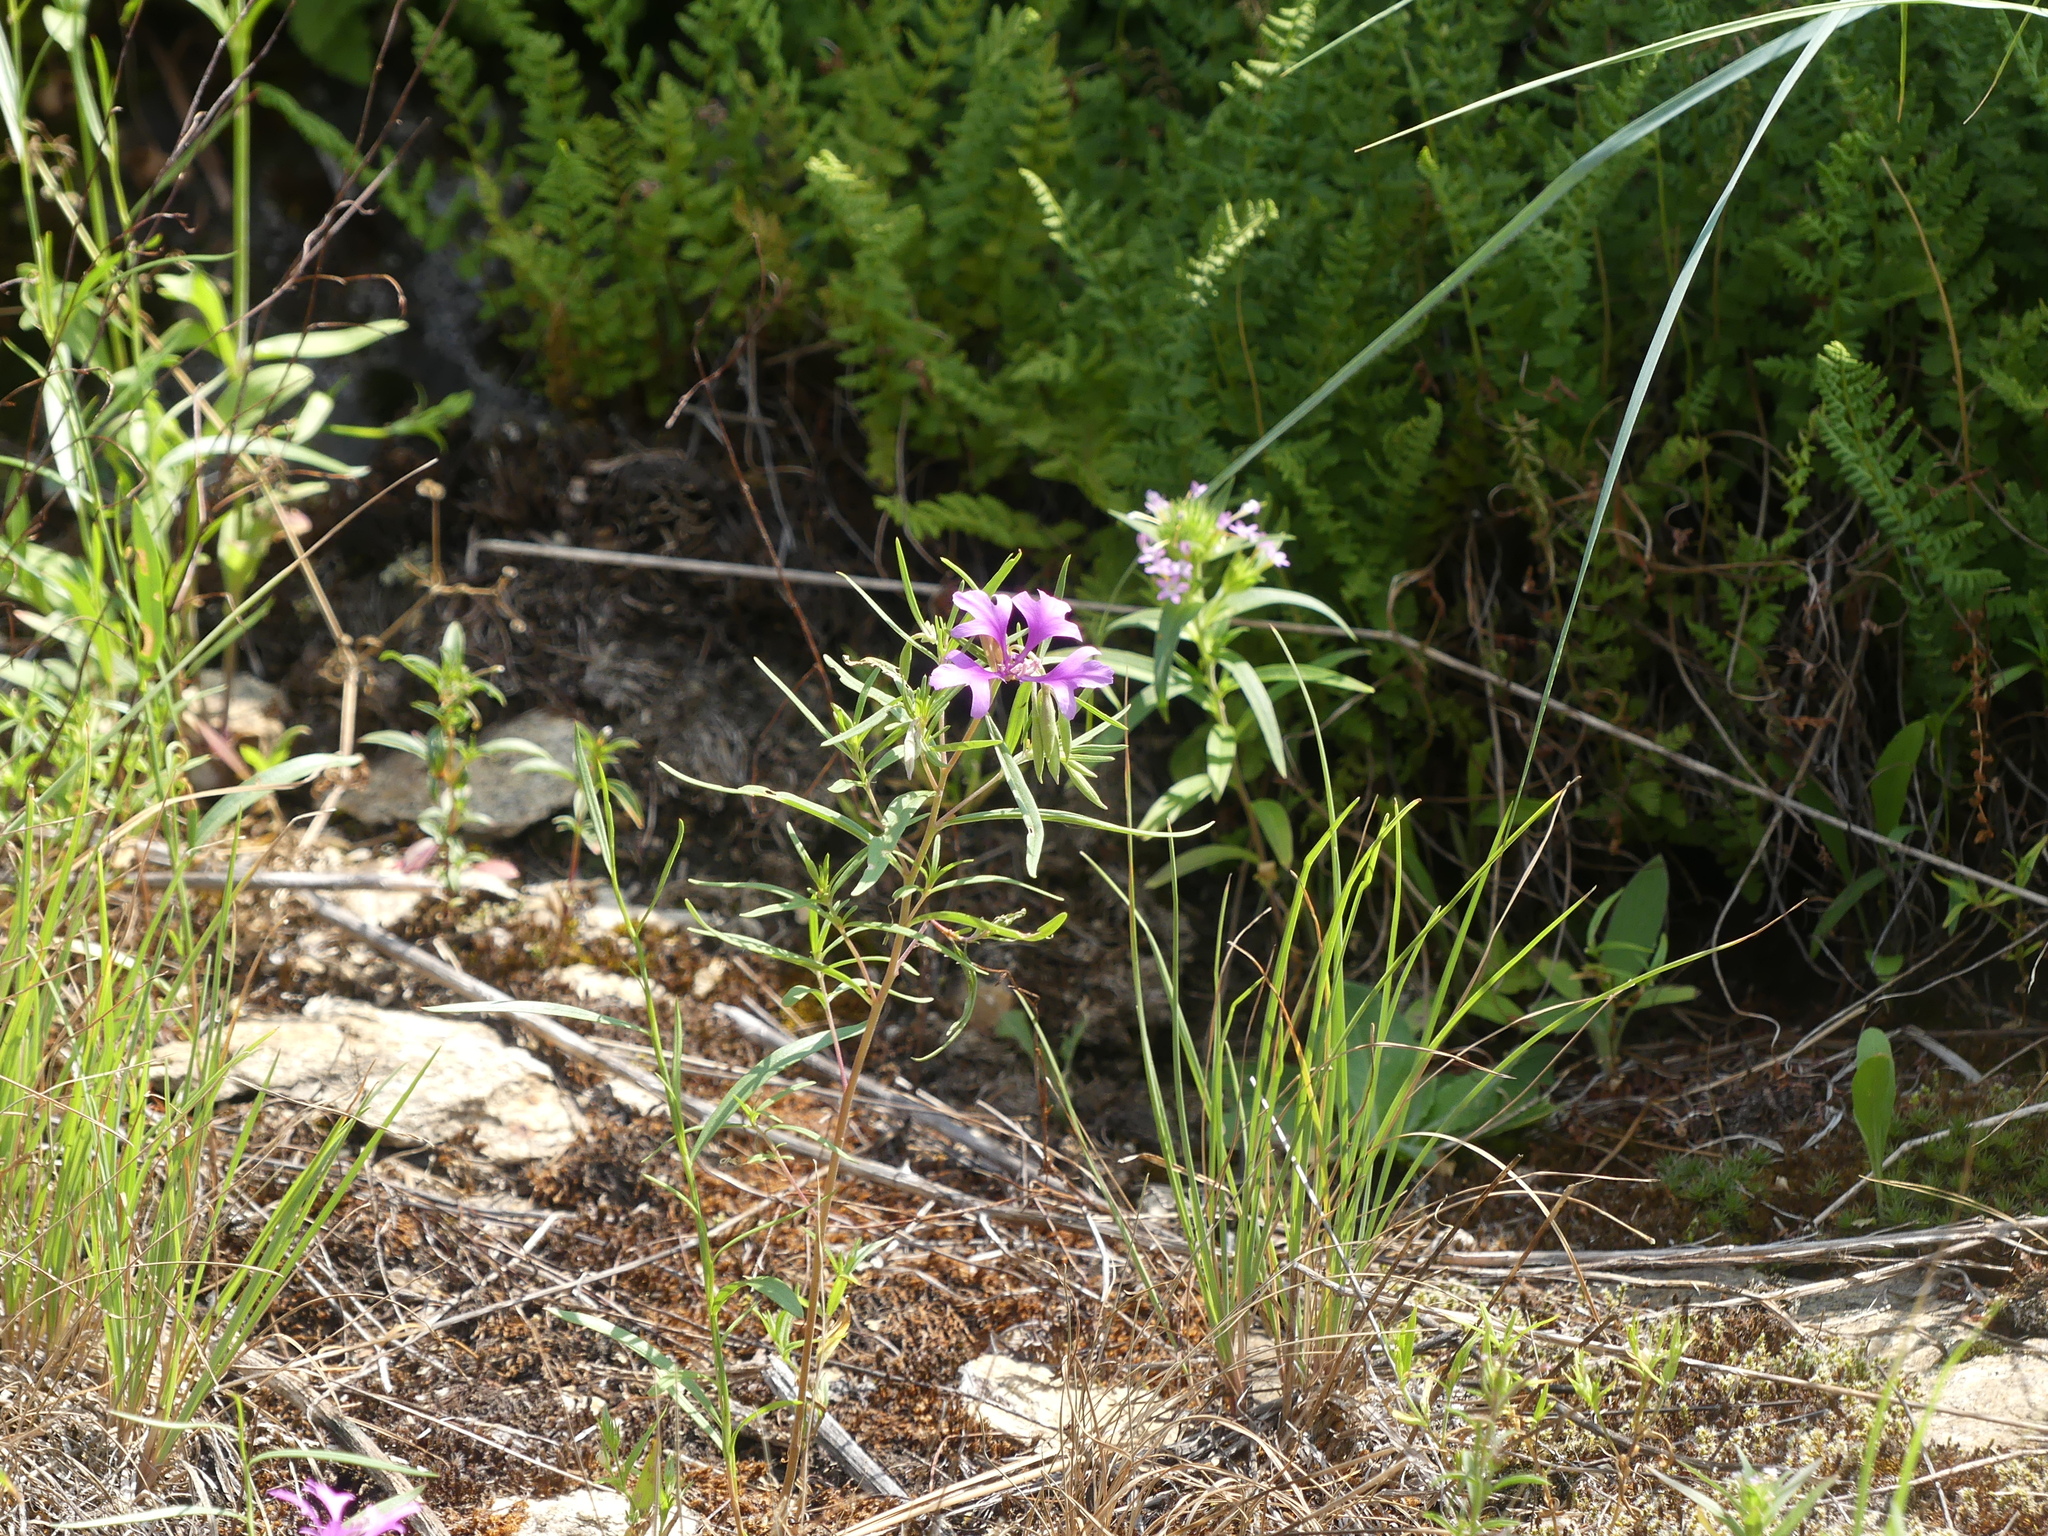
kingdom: Plantae
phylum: Tracheophyta
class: Magnoliopsida
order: Myrtales
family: Onagraceae
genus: Clarkia
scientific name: Clarkia pulchella
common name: Deer horn
